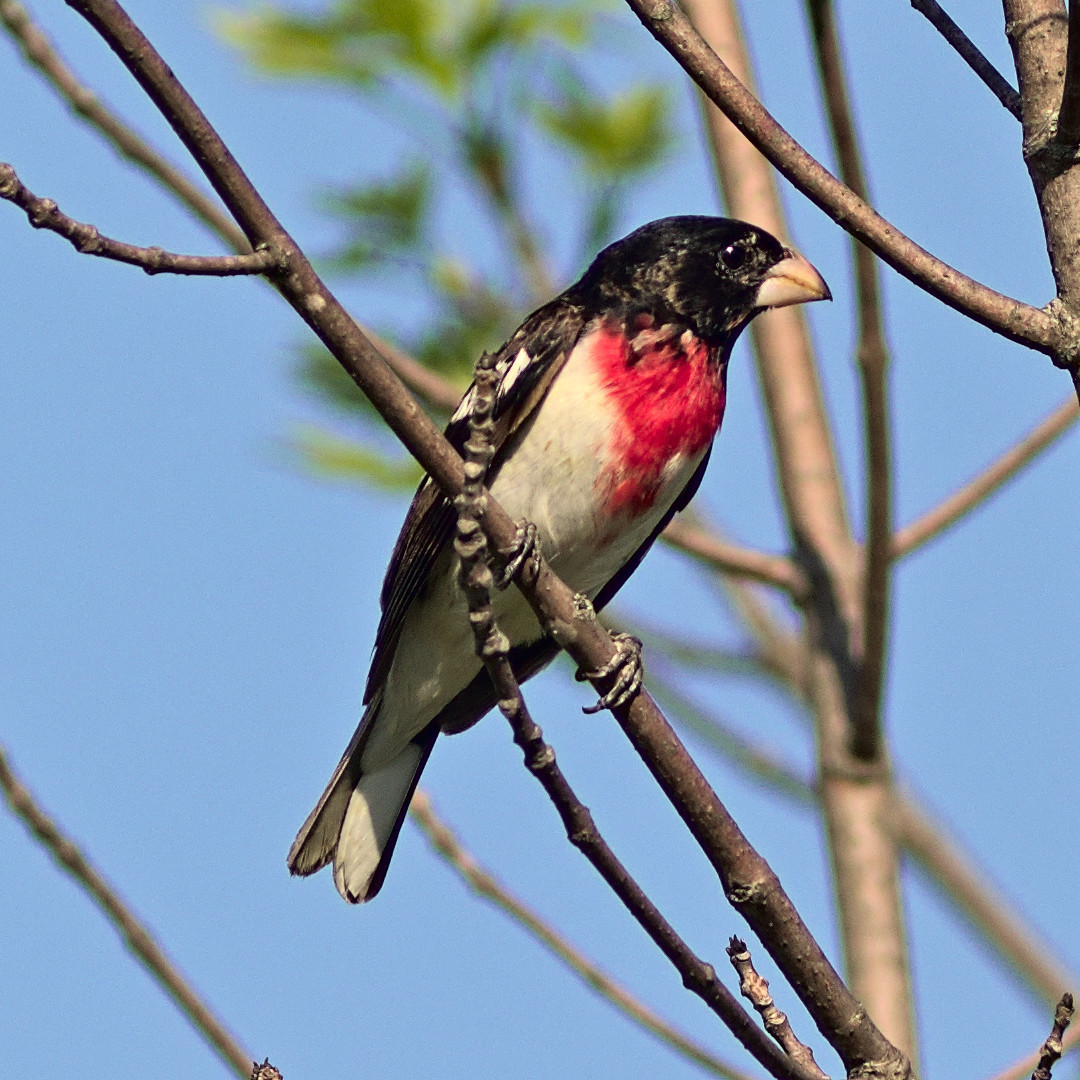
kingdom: Animalia
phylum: Chordata
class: Aves
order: Passeriformes
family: Cardinalidae
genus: Pheucticus
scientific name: Pheucticus ludovicianus
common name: Rose-breasted grosbeak
